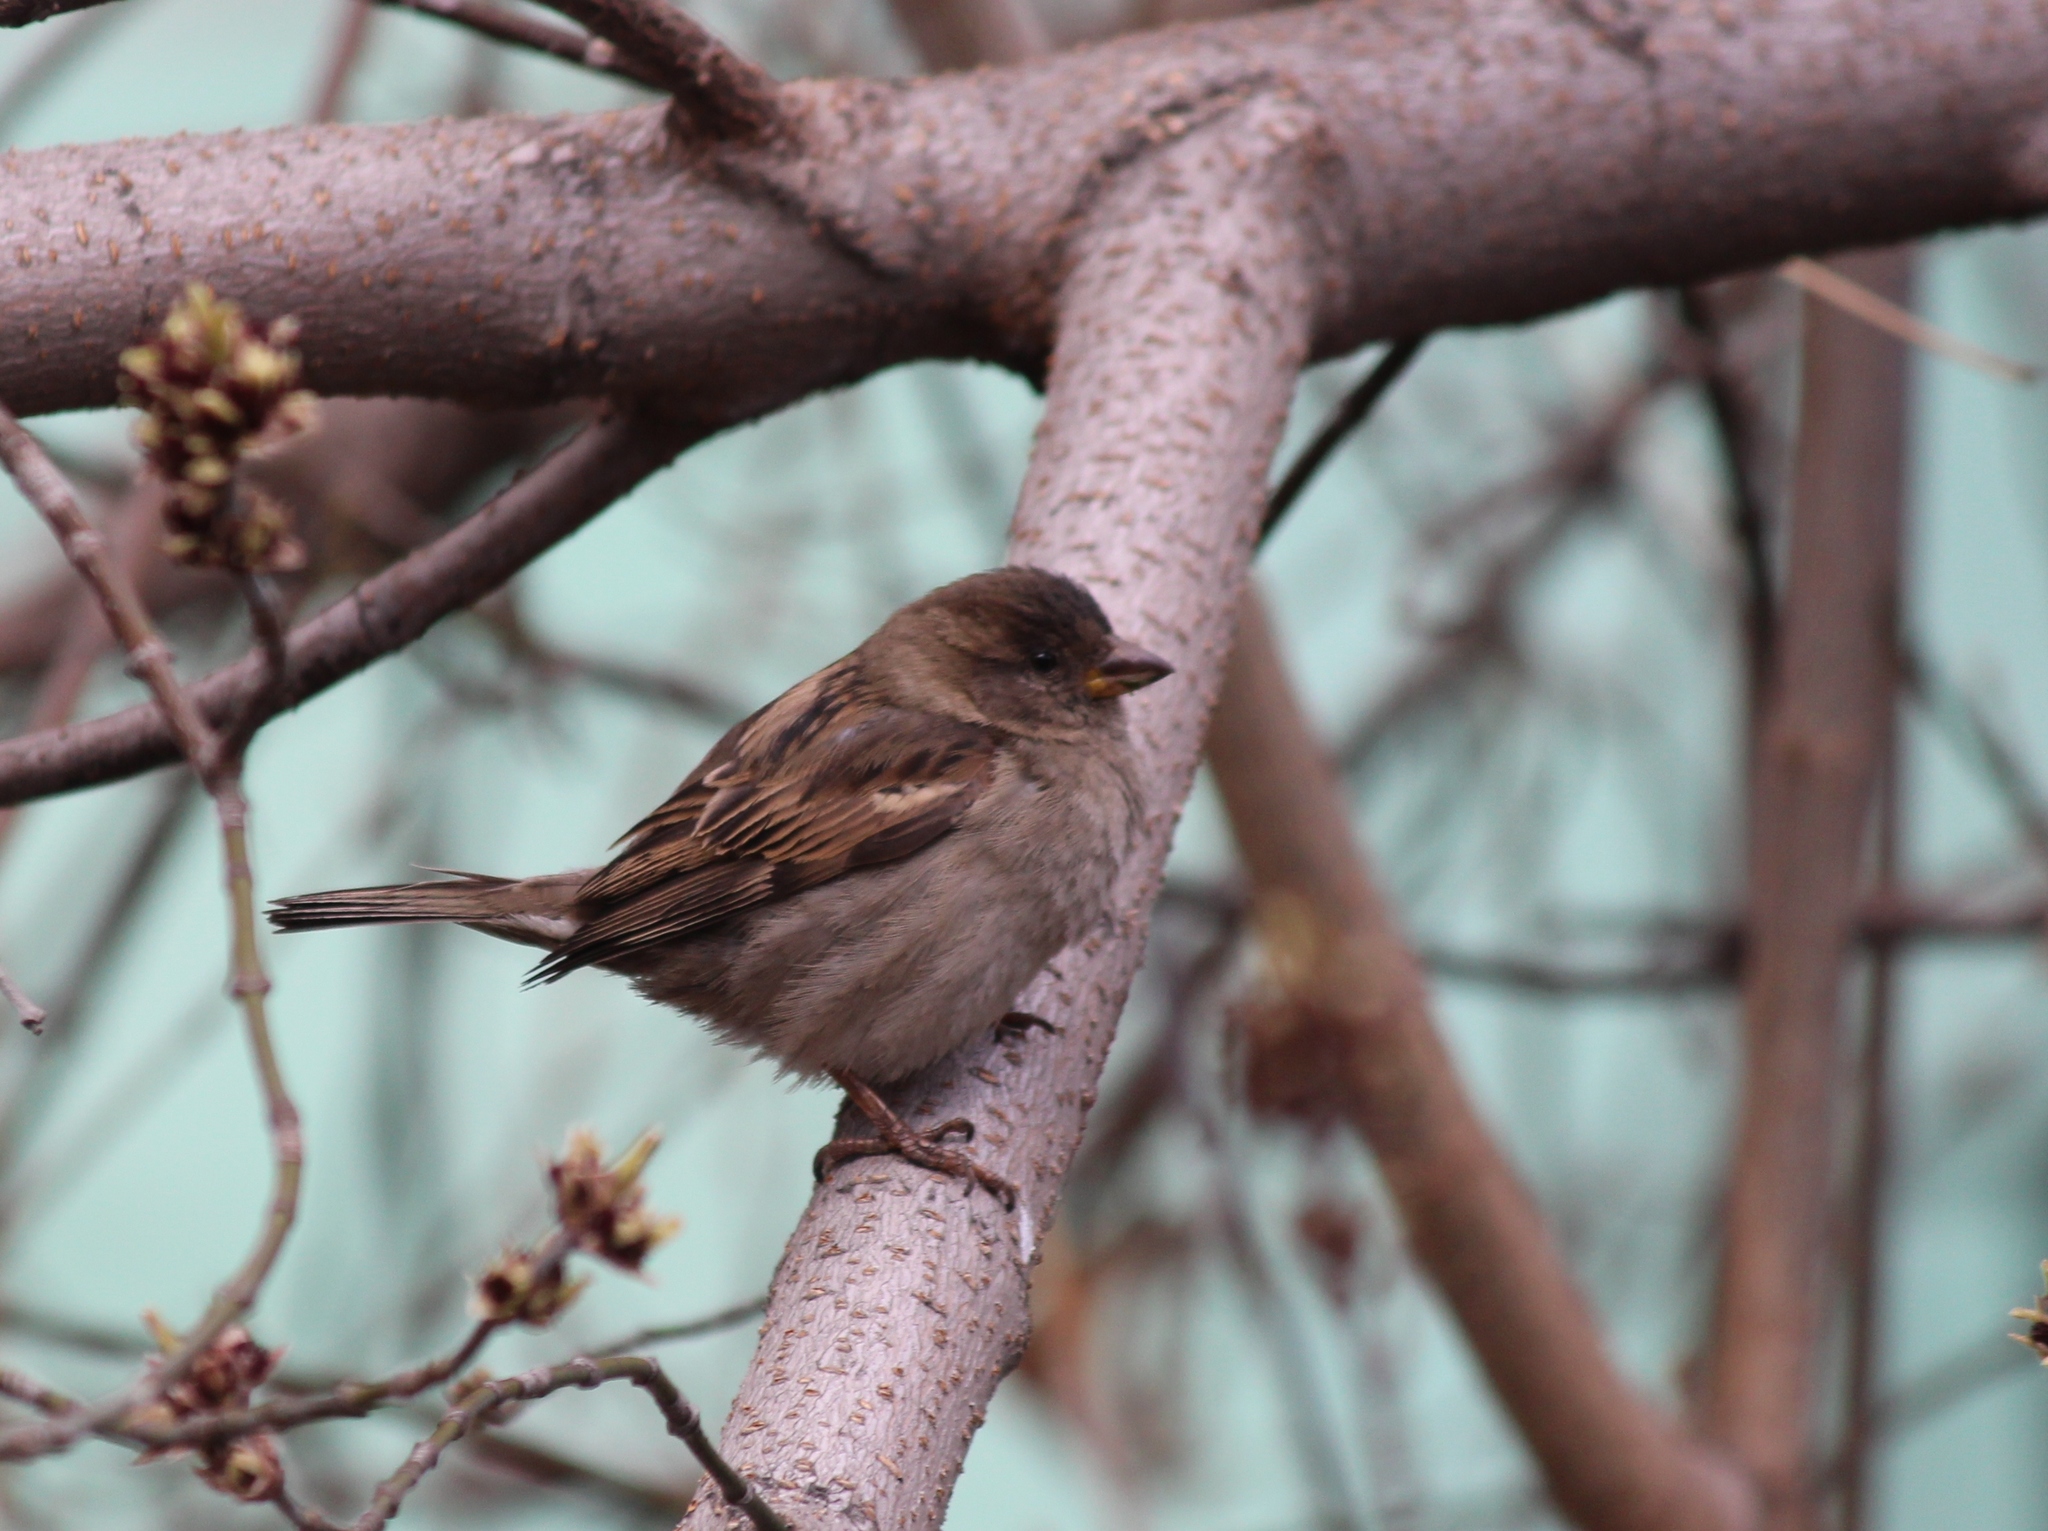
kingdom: Animalia
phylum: Chordata
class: Aves
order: Passeriformes
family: Passeridae
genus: Passer
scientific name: Passer domesticus
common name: House sparrow
